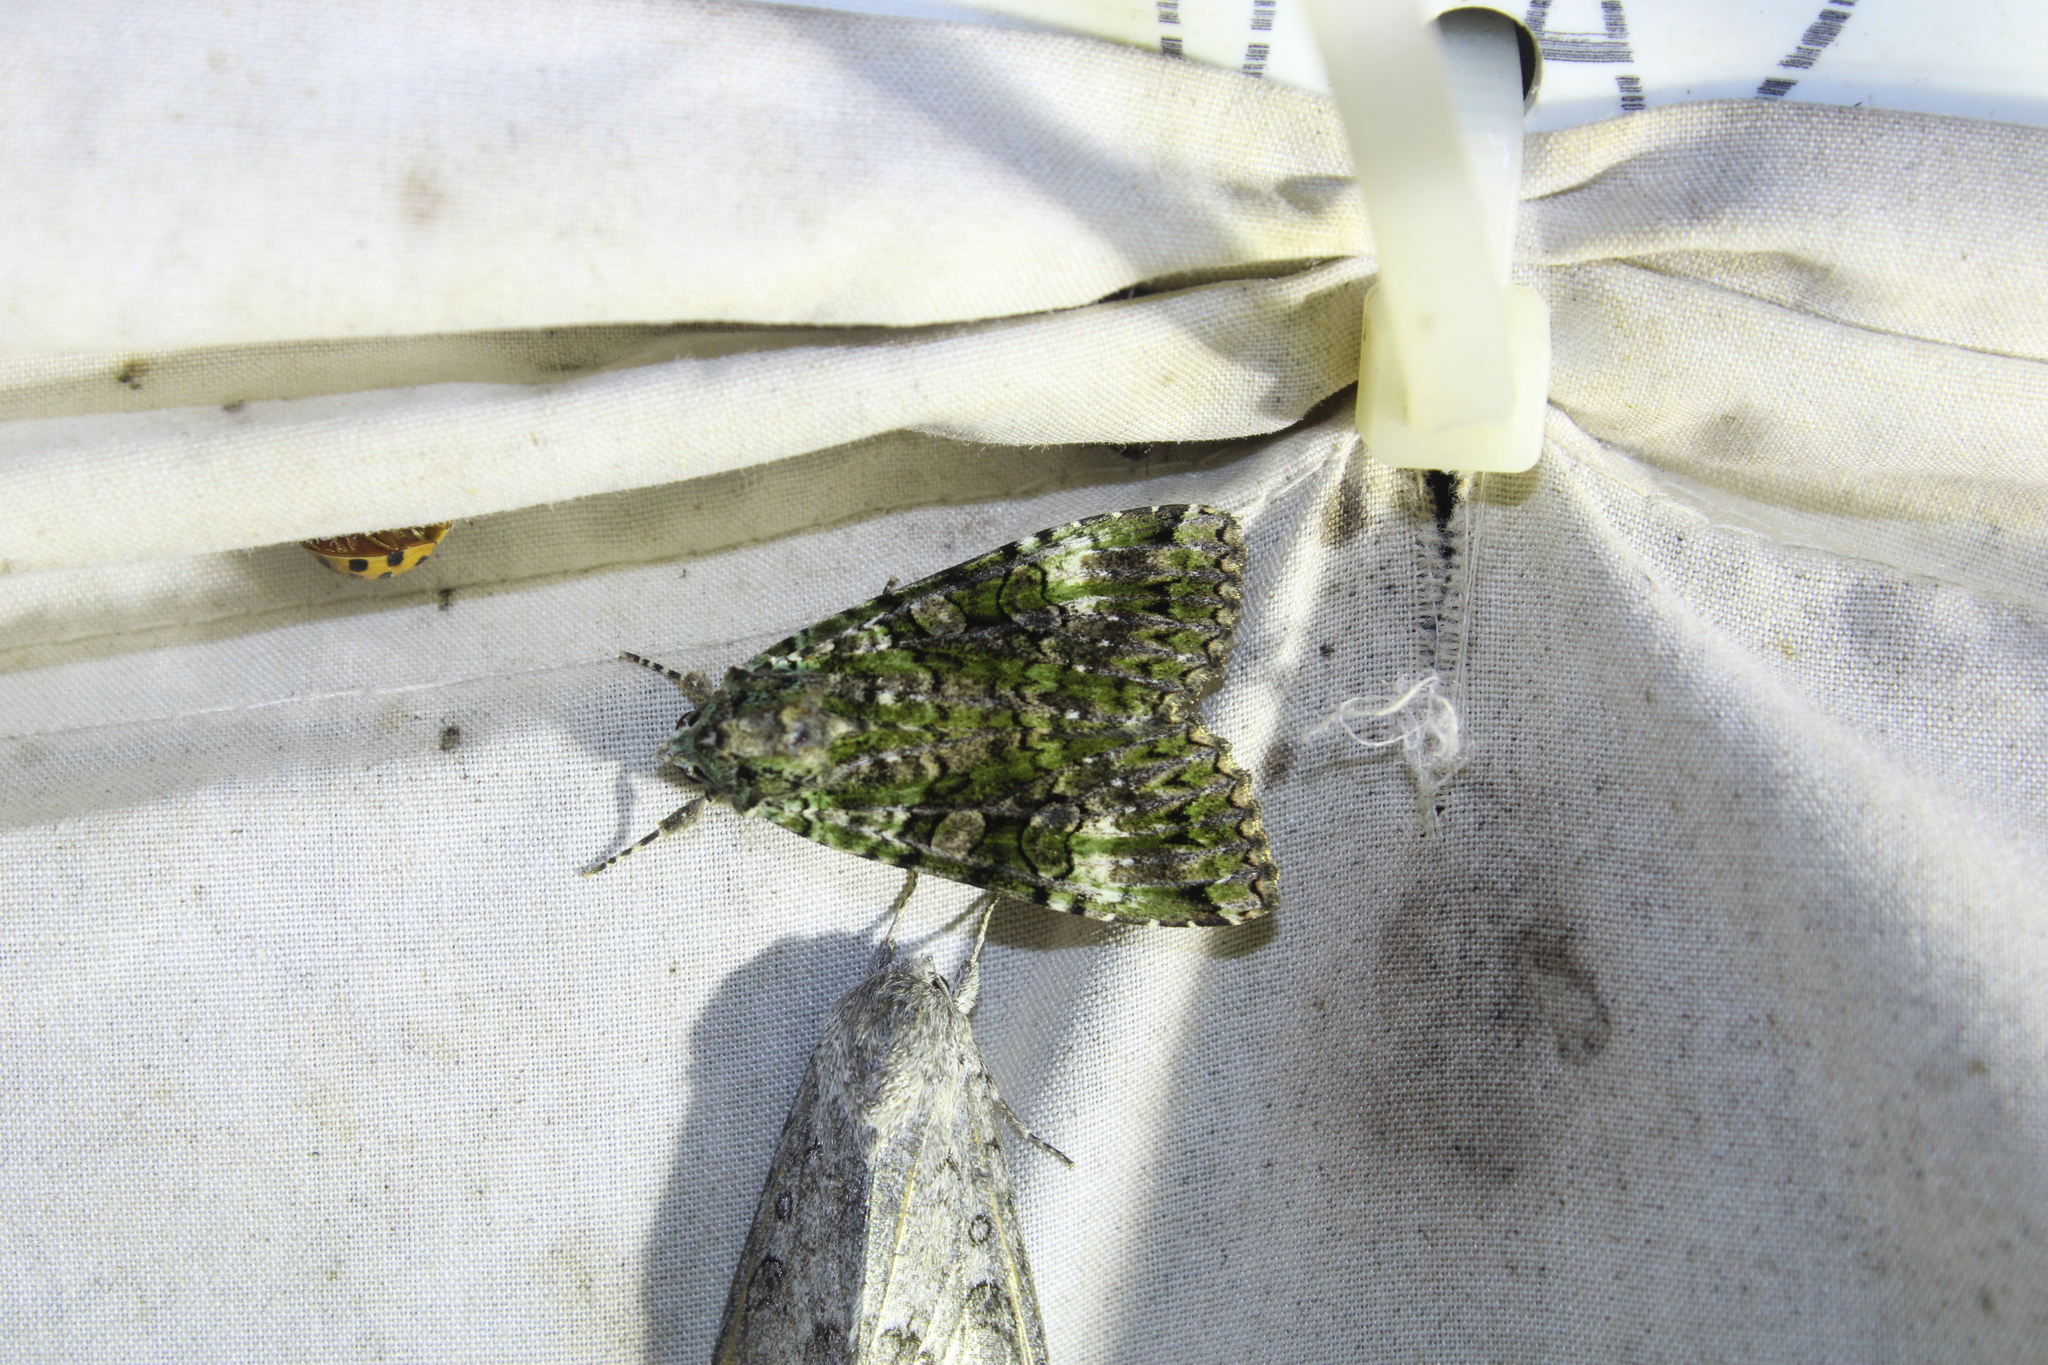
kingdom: Animalia
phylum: Arthropoda
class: Insecta
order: Lepidoptera
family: Noctuidae
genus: Anaplectoides
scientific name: Anaplectoides prasina
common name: Green arches
